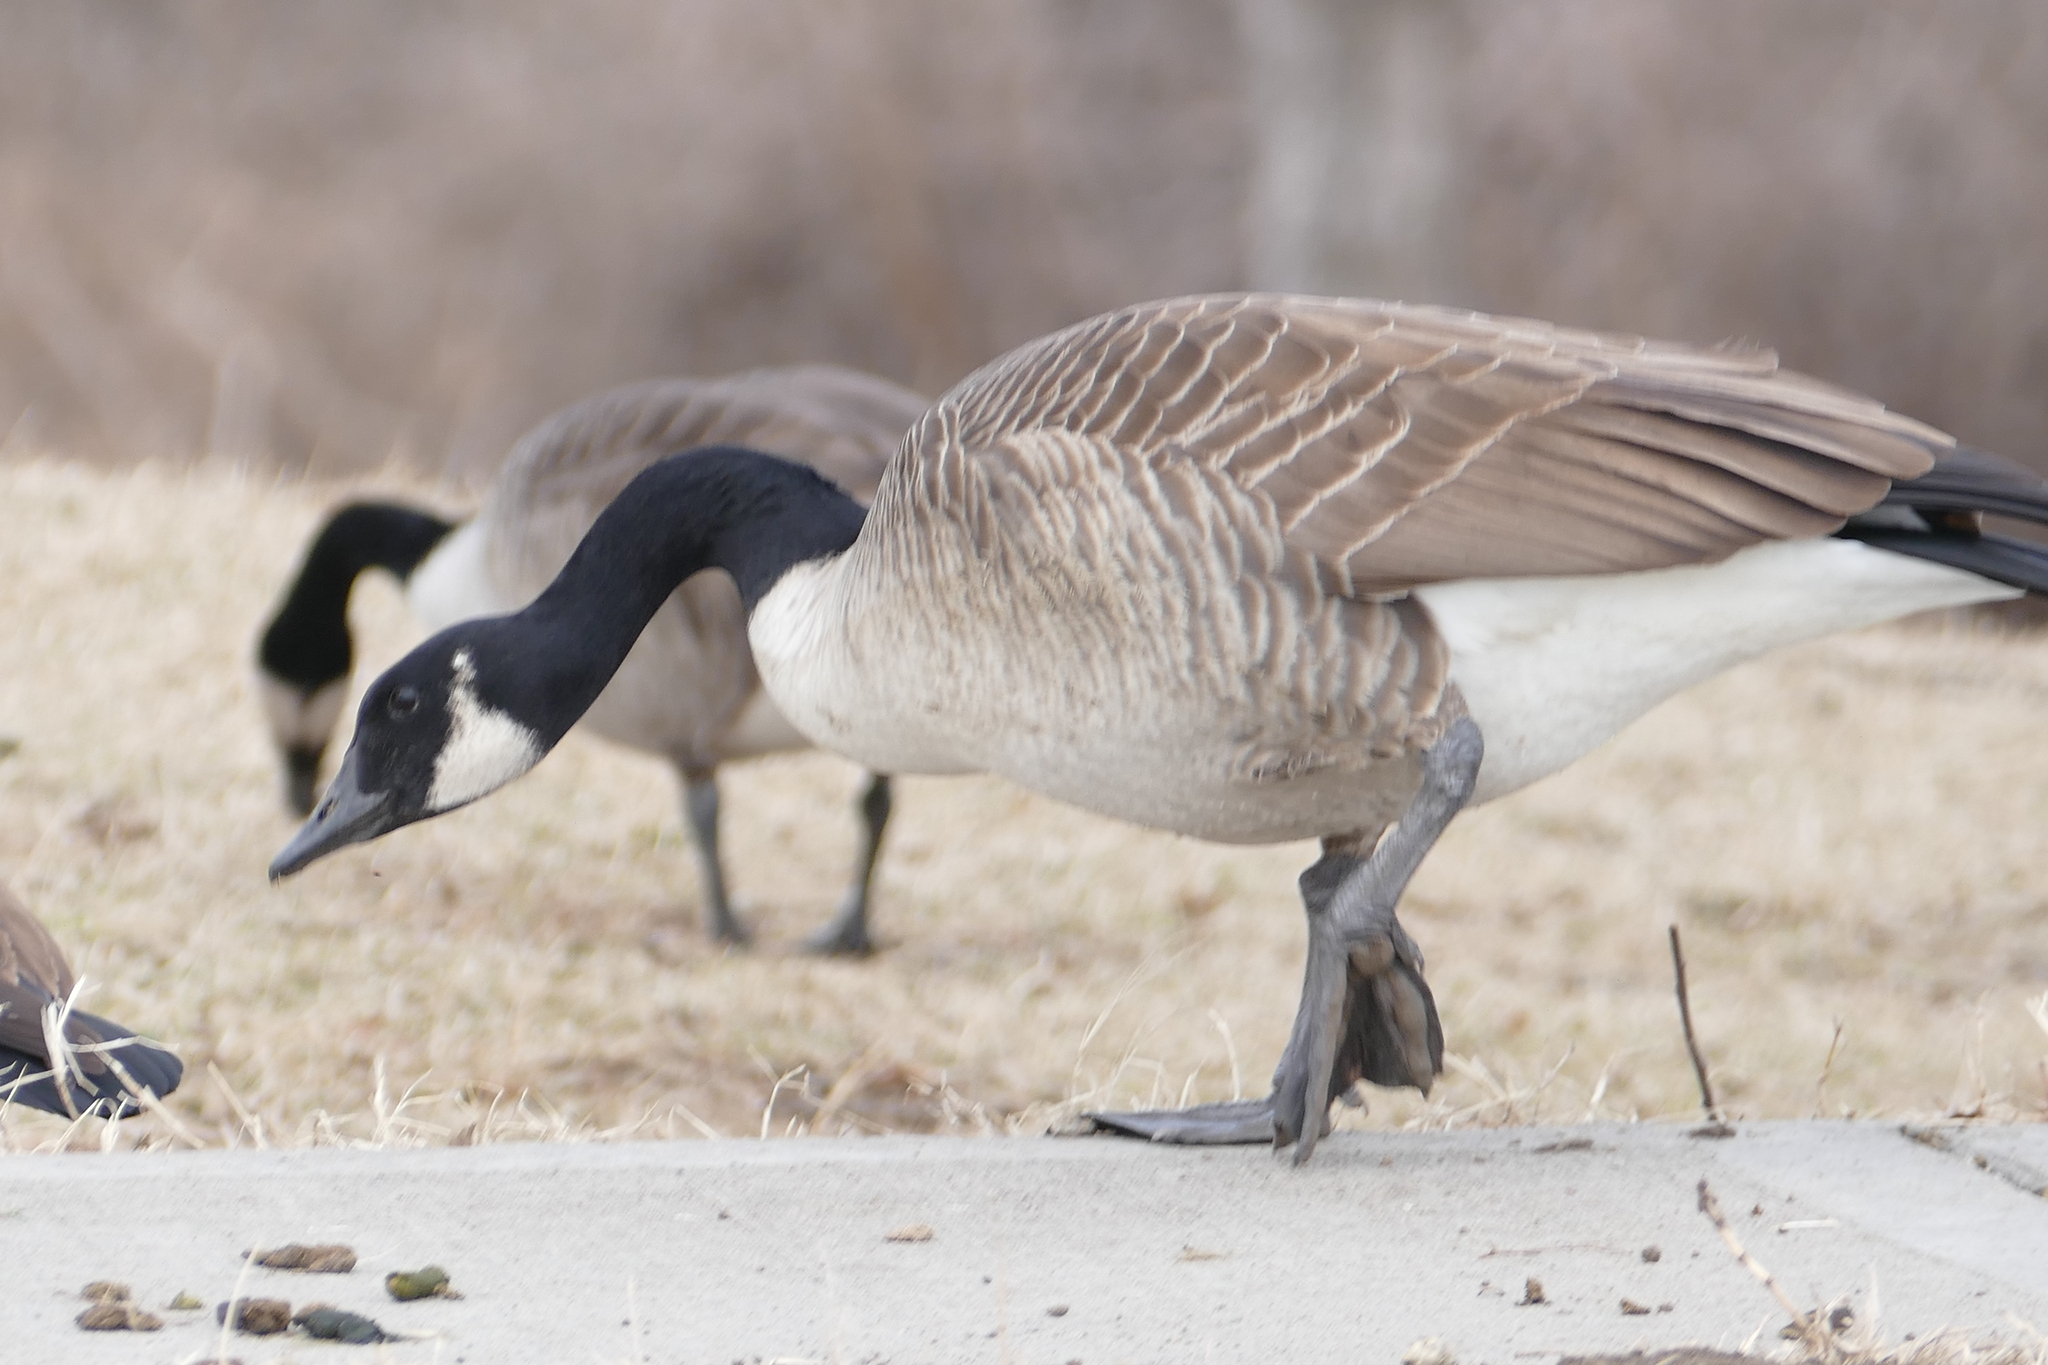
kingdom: Animalia
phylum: Chordata
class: Aves
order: Anseriformes
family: Anatidae
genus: Branta
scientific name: Branta canadensis
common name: Canada goose
